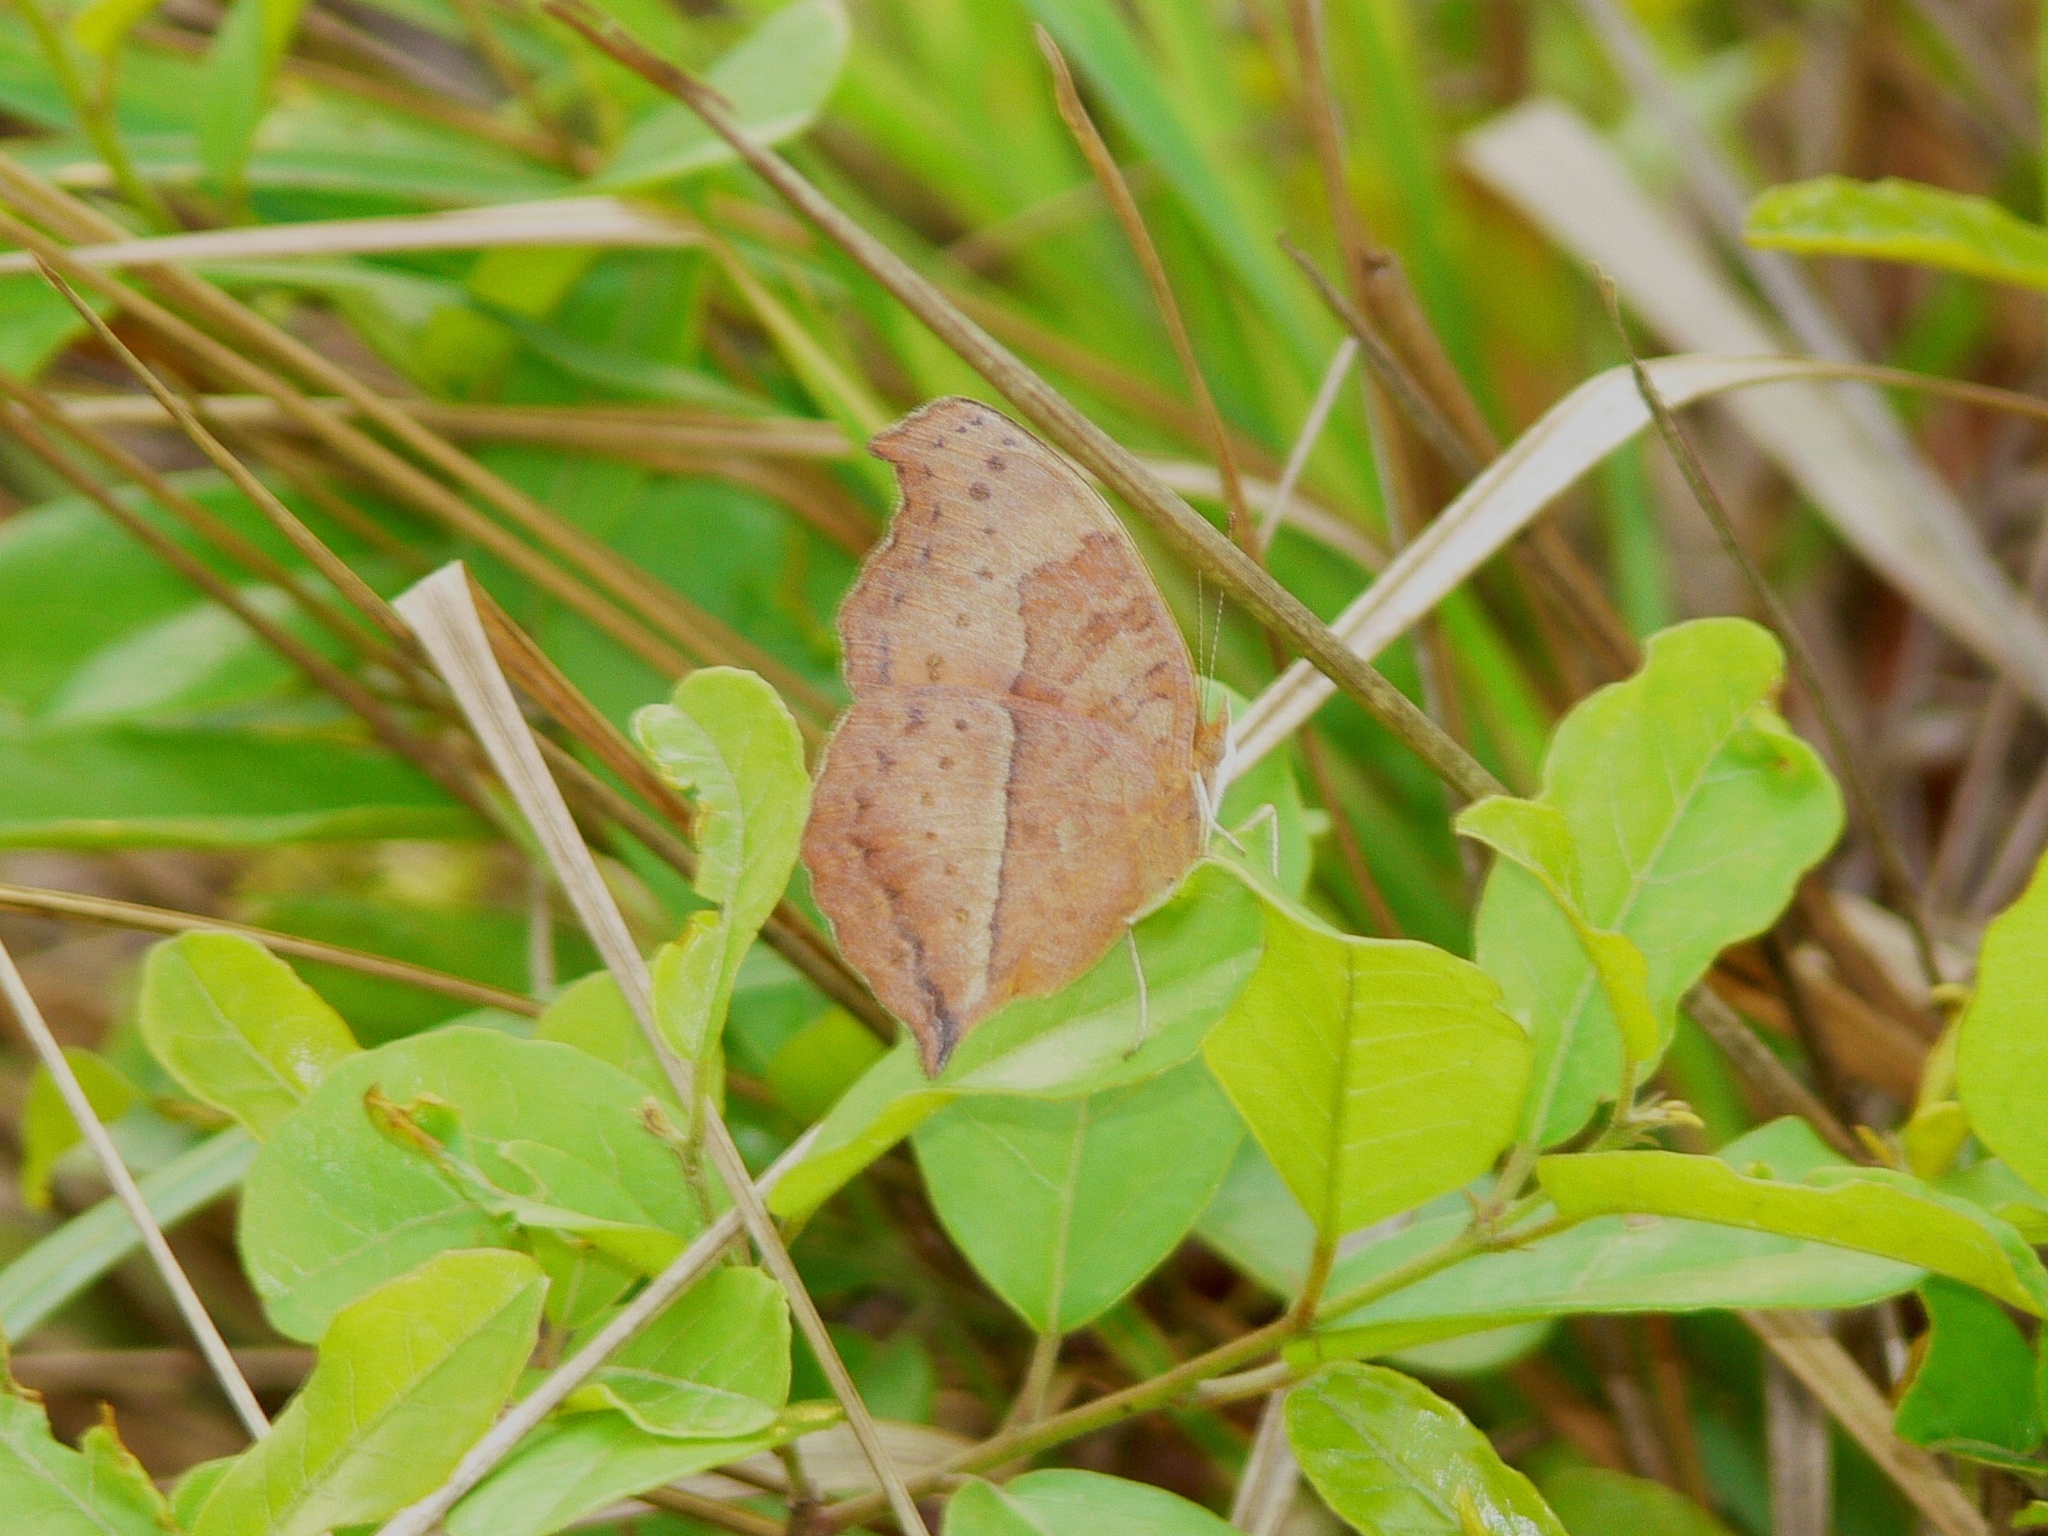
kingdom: Animalia
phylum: Arthropoda
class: Insecta
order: Lepidoptera
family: Nymphalidae
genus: Junonia
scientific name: Junonia antilope
